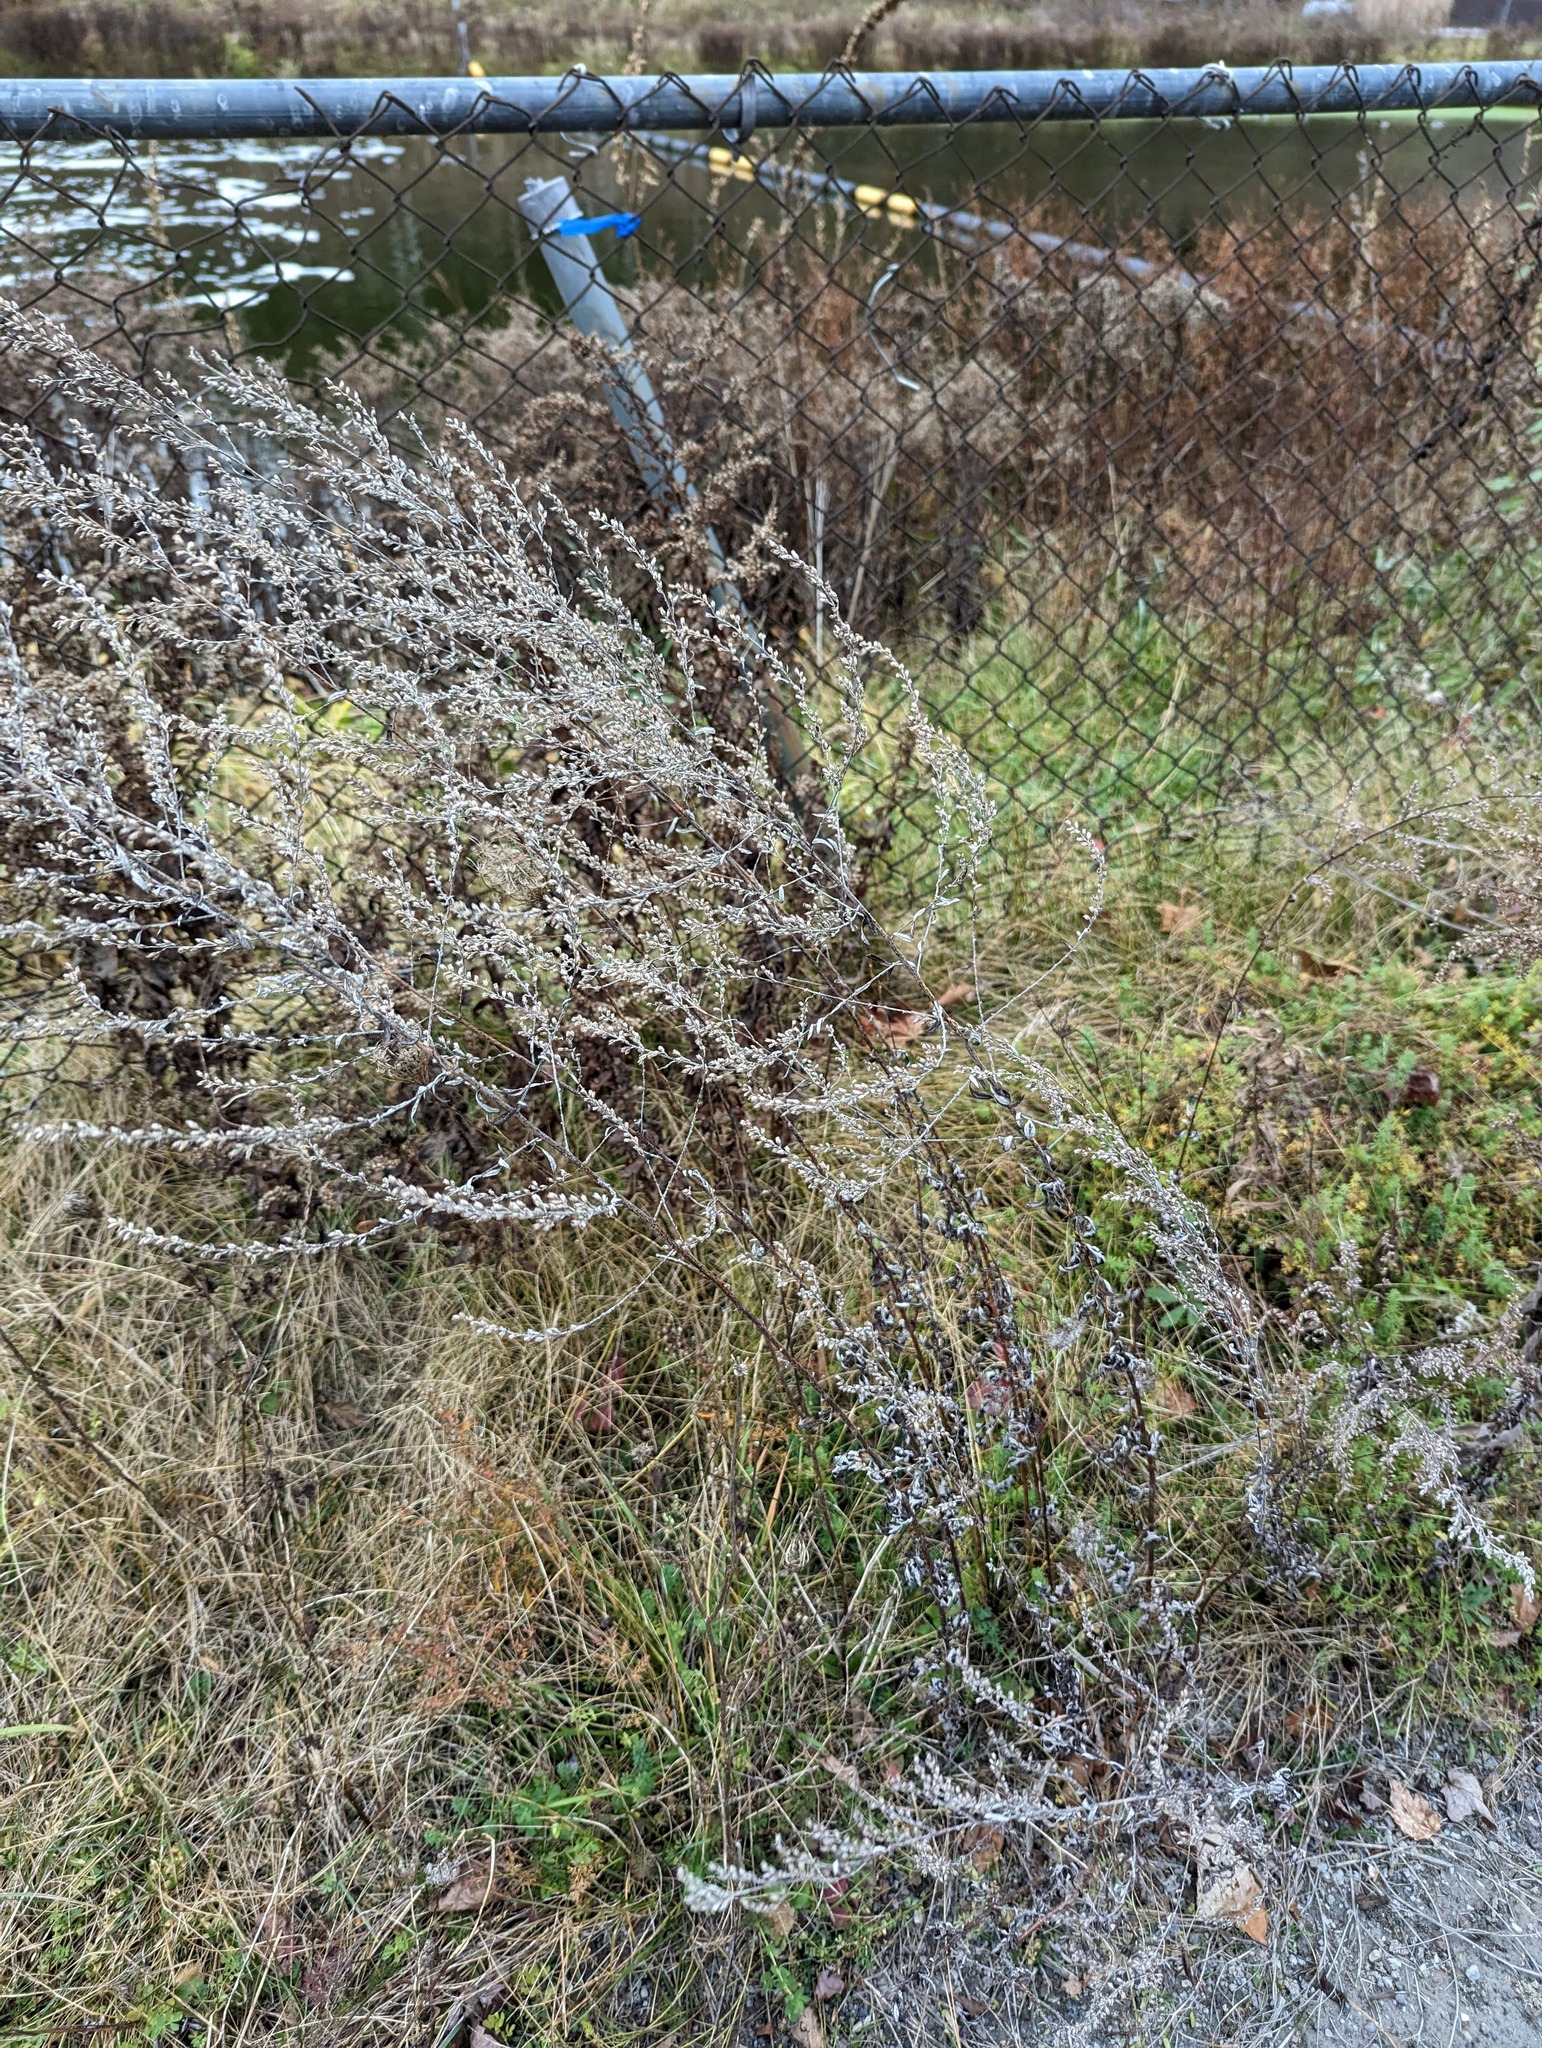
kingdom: Plantae
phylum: Tracheophyta
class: Magnoliopsida
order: Asterales
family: Asteraceae
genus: Artemisia
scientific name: Artemisia vulgaris
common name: Mugwort
